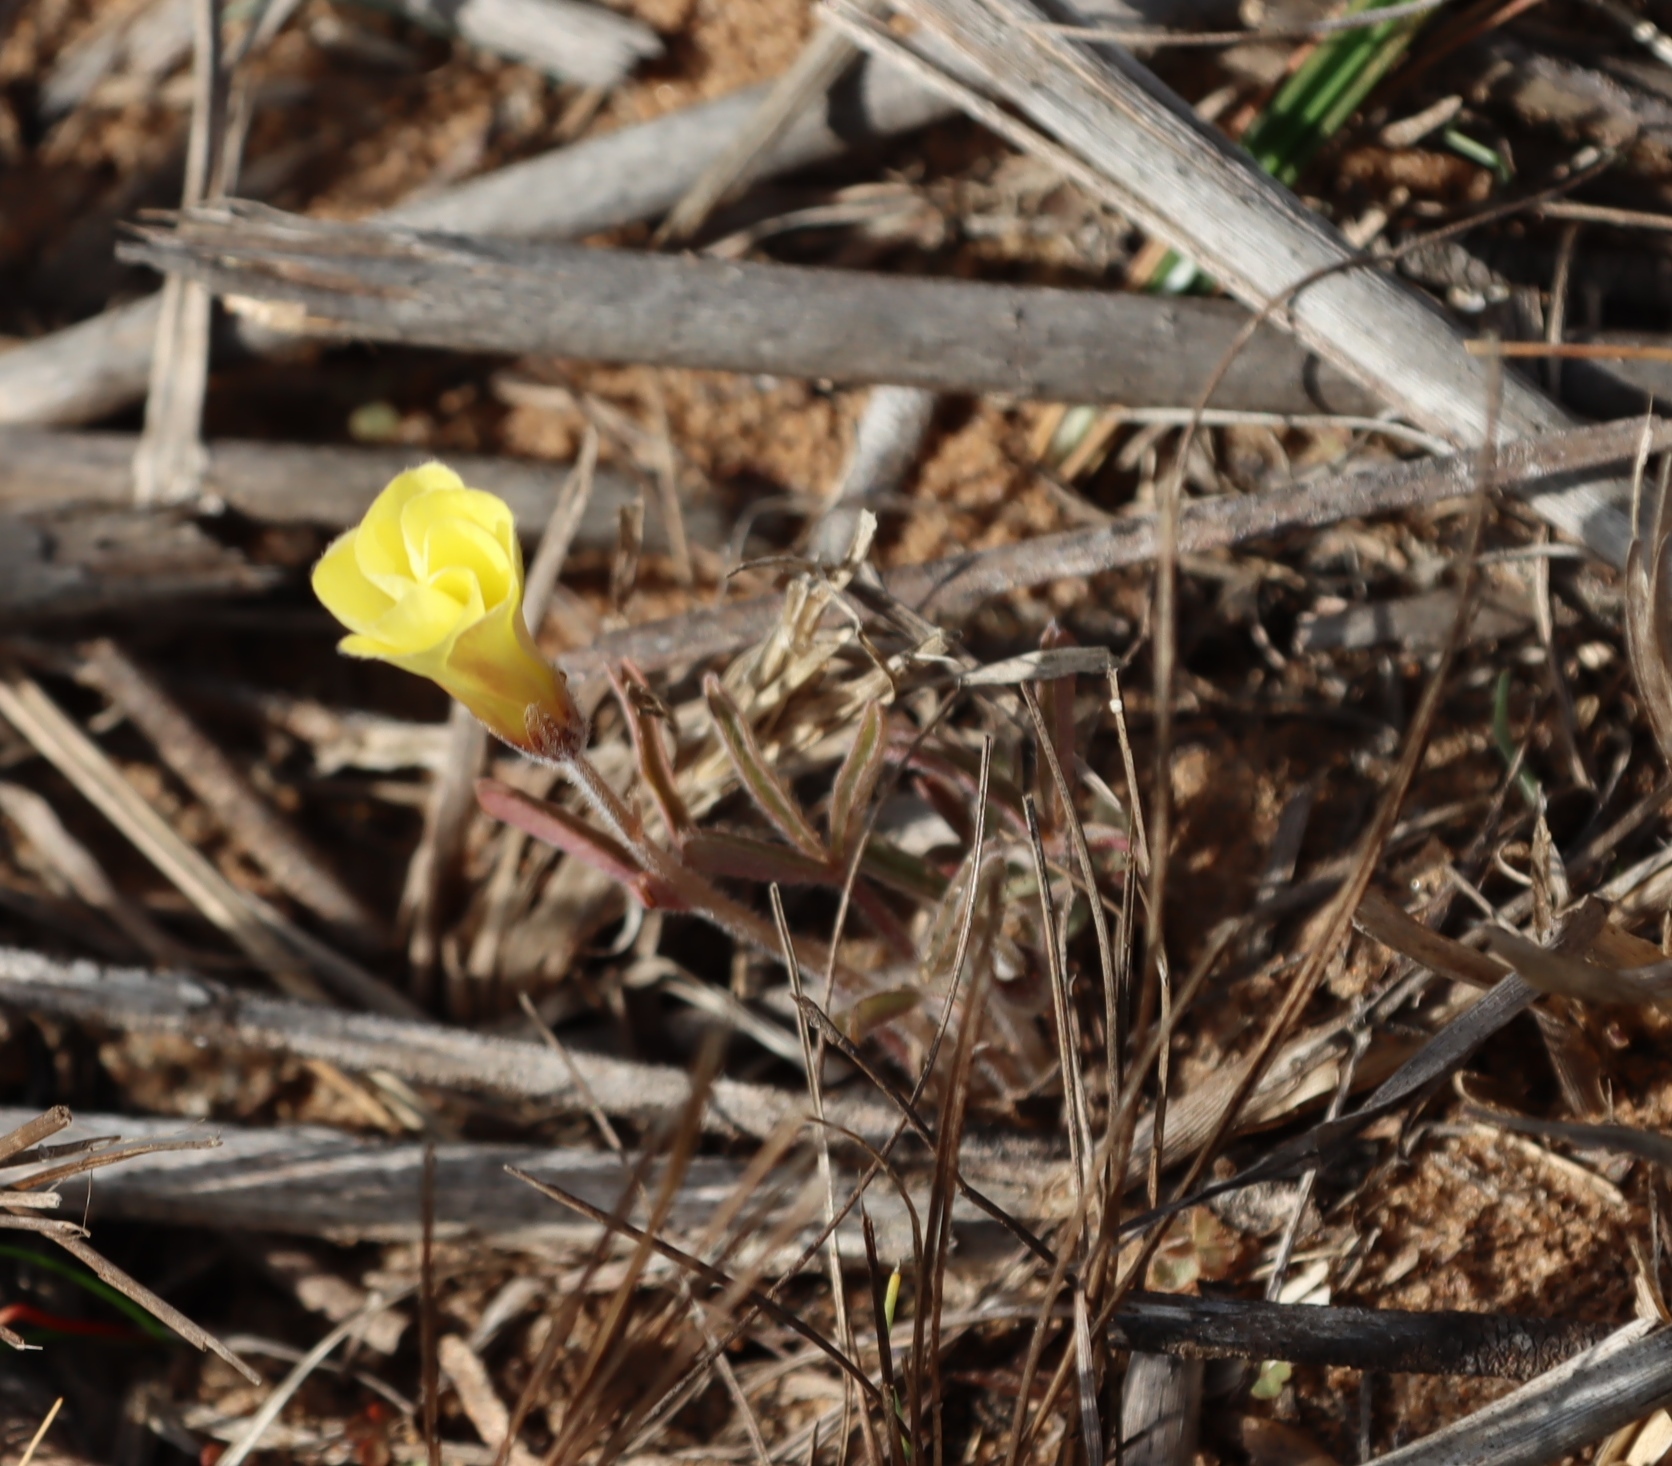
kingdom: Plantae
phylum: Tracheophyta
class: Magnoliopsida
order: Oxalidales
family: Oxalidaceae
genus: Oxalis
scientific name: Oxalis obtusa
